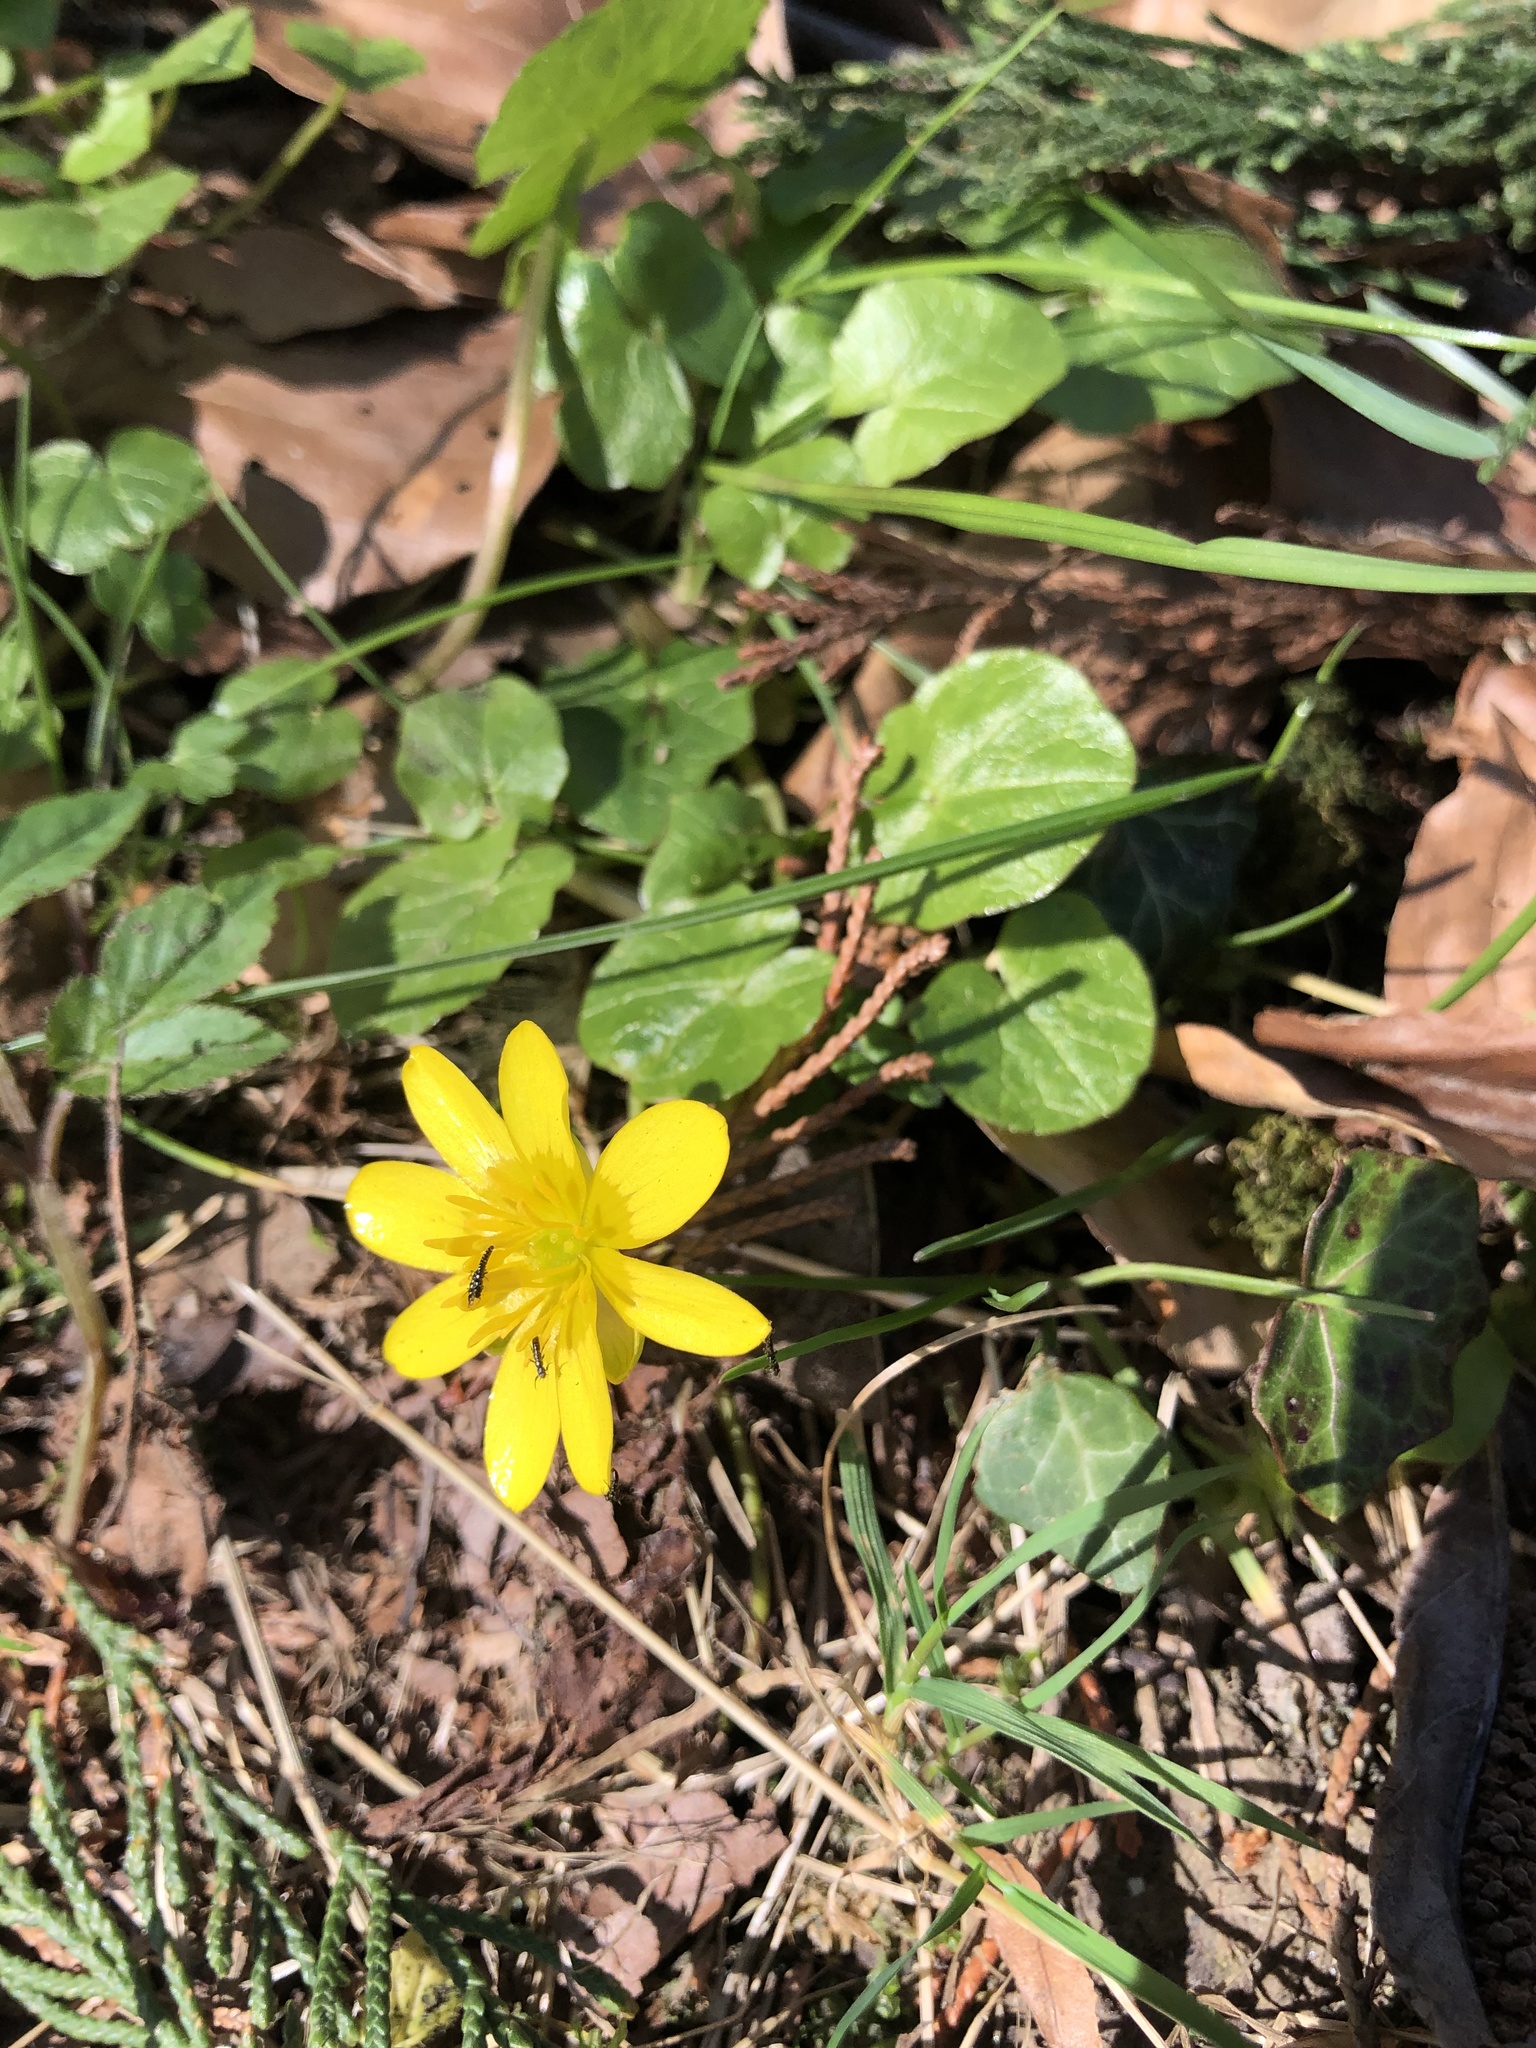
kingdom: Plantae
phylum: Tracheophyta
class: Magnoliopsida
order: Ranunculales
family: Ranunculaceae
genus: Ficaria
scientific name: Ficaria verna
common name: Lesser celandine
